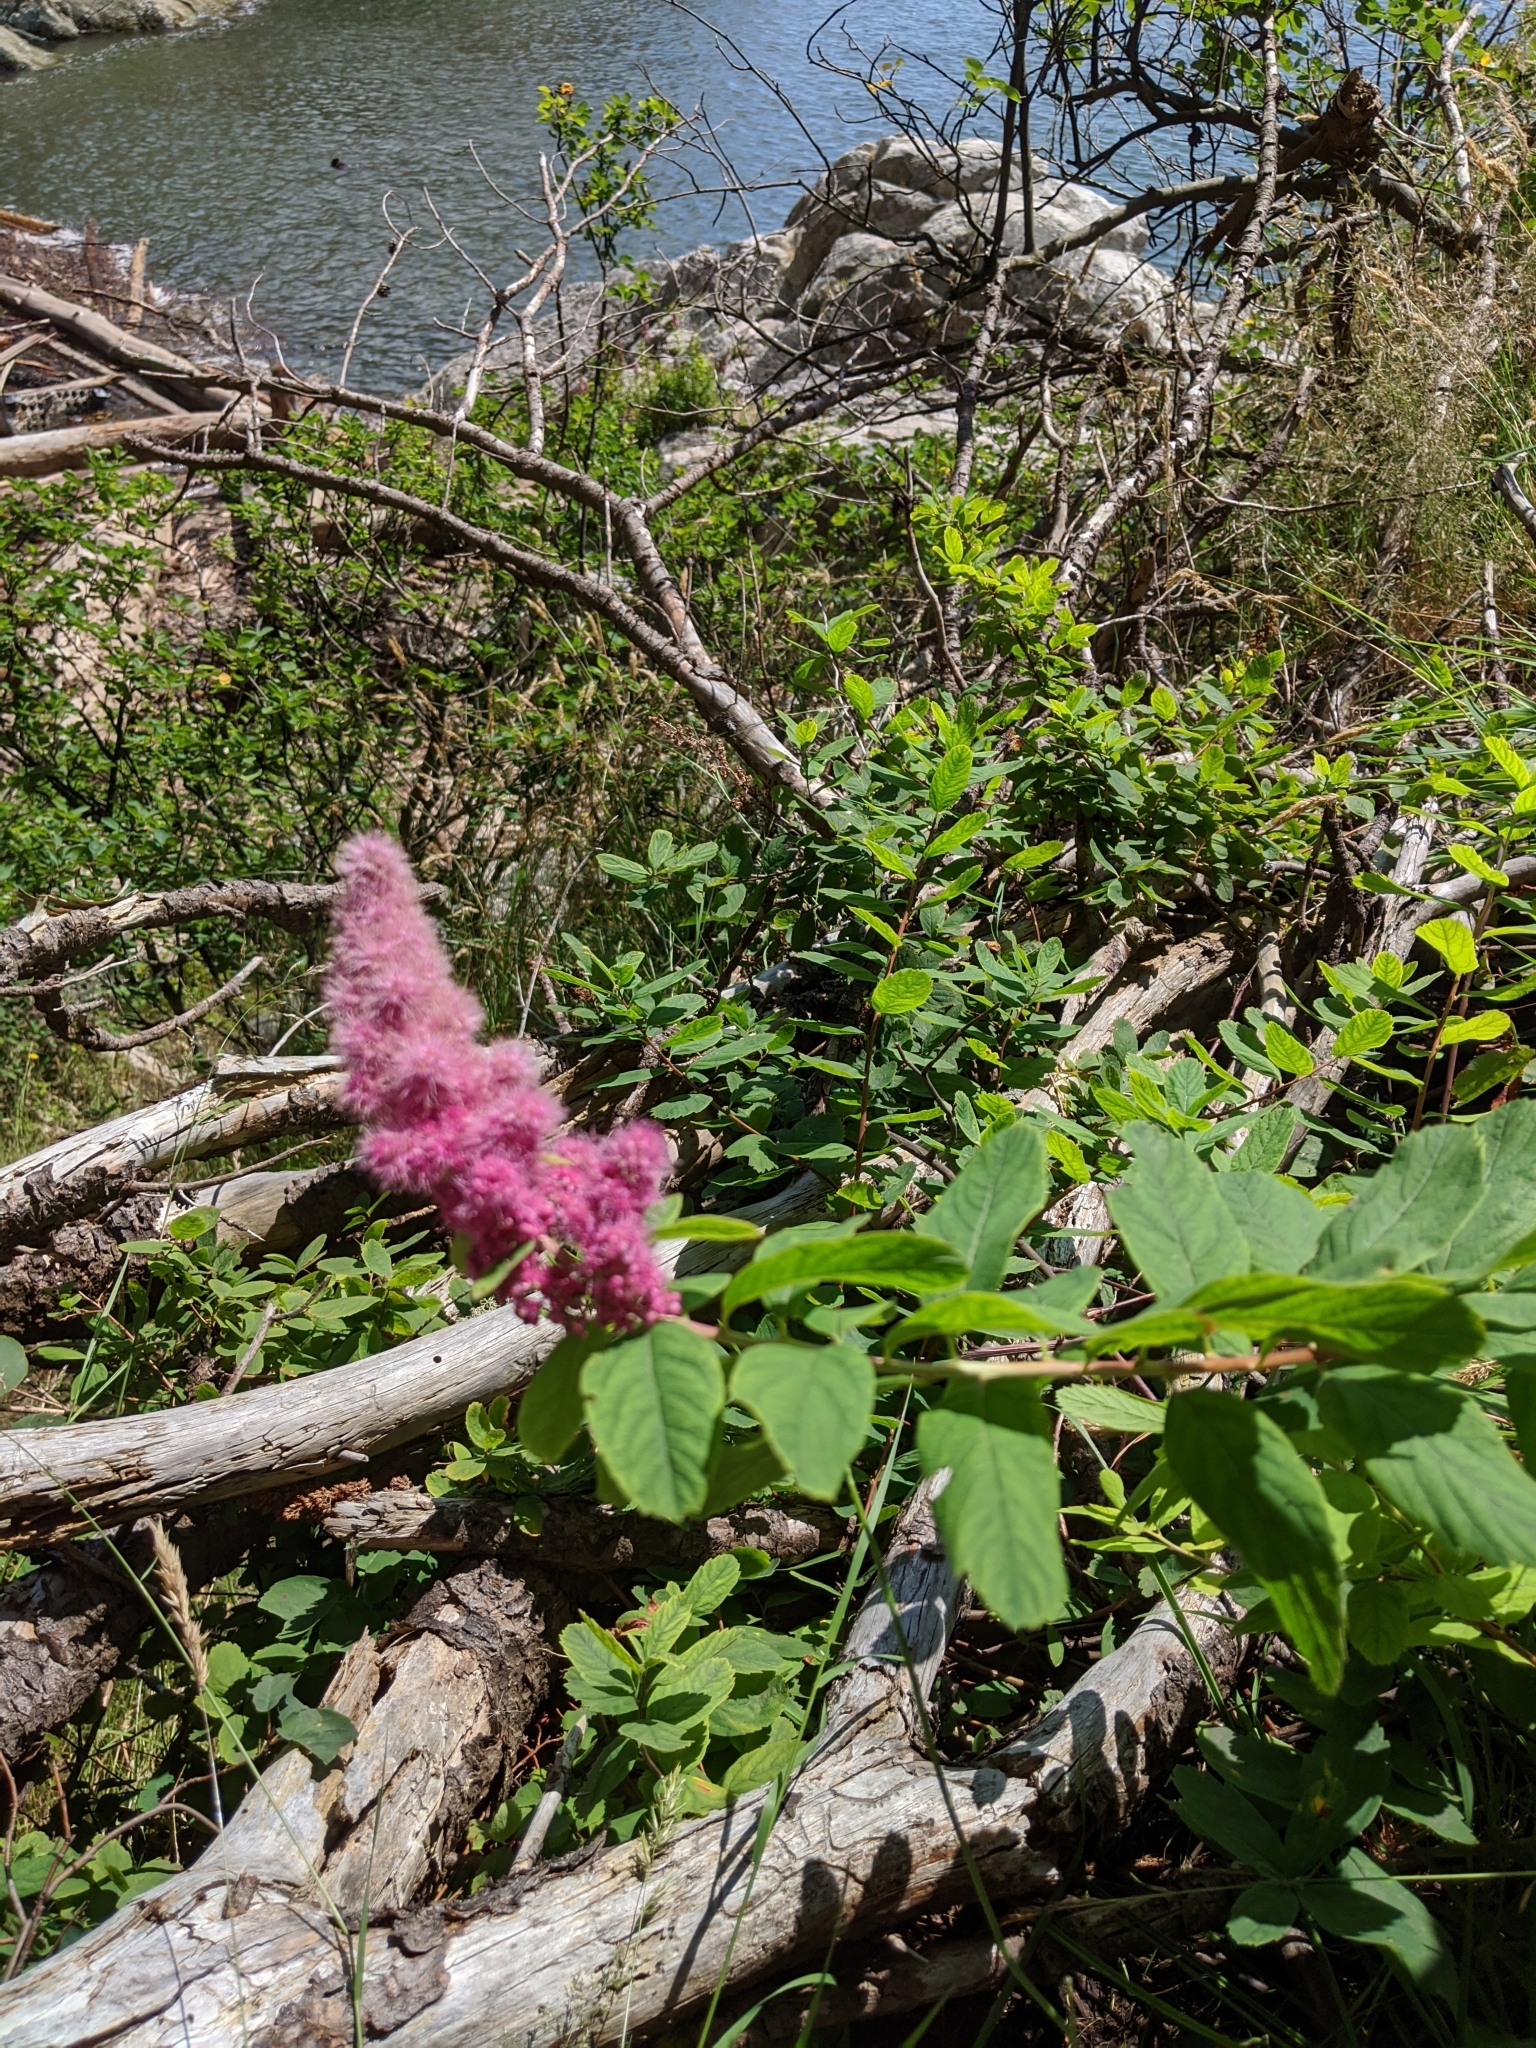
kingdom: Plantae
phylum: Tracheophyta
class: Magnoliopsida
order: Rosales
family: Rosaceae
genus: Spiraea
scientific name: Spiraea douglasii
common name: Steeplebush
